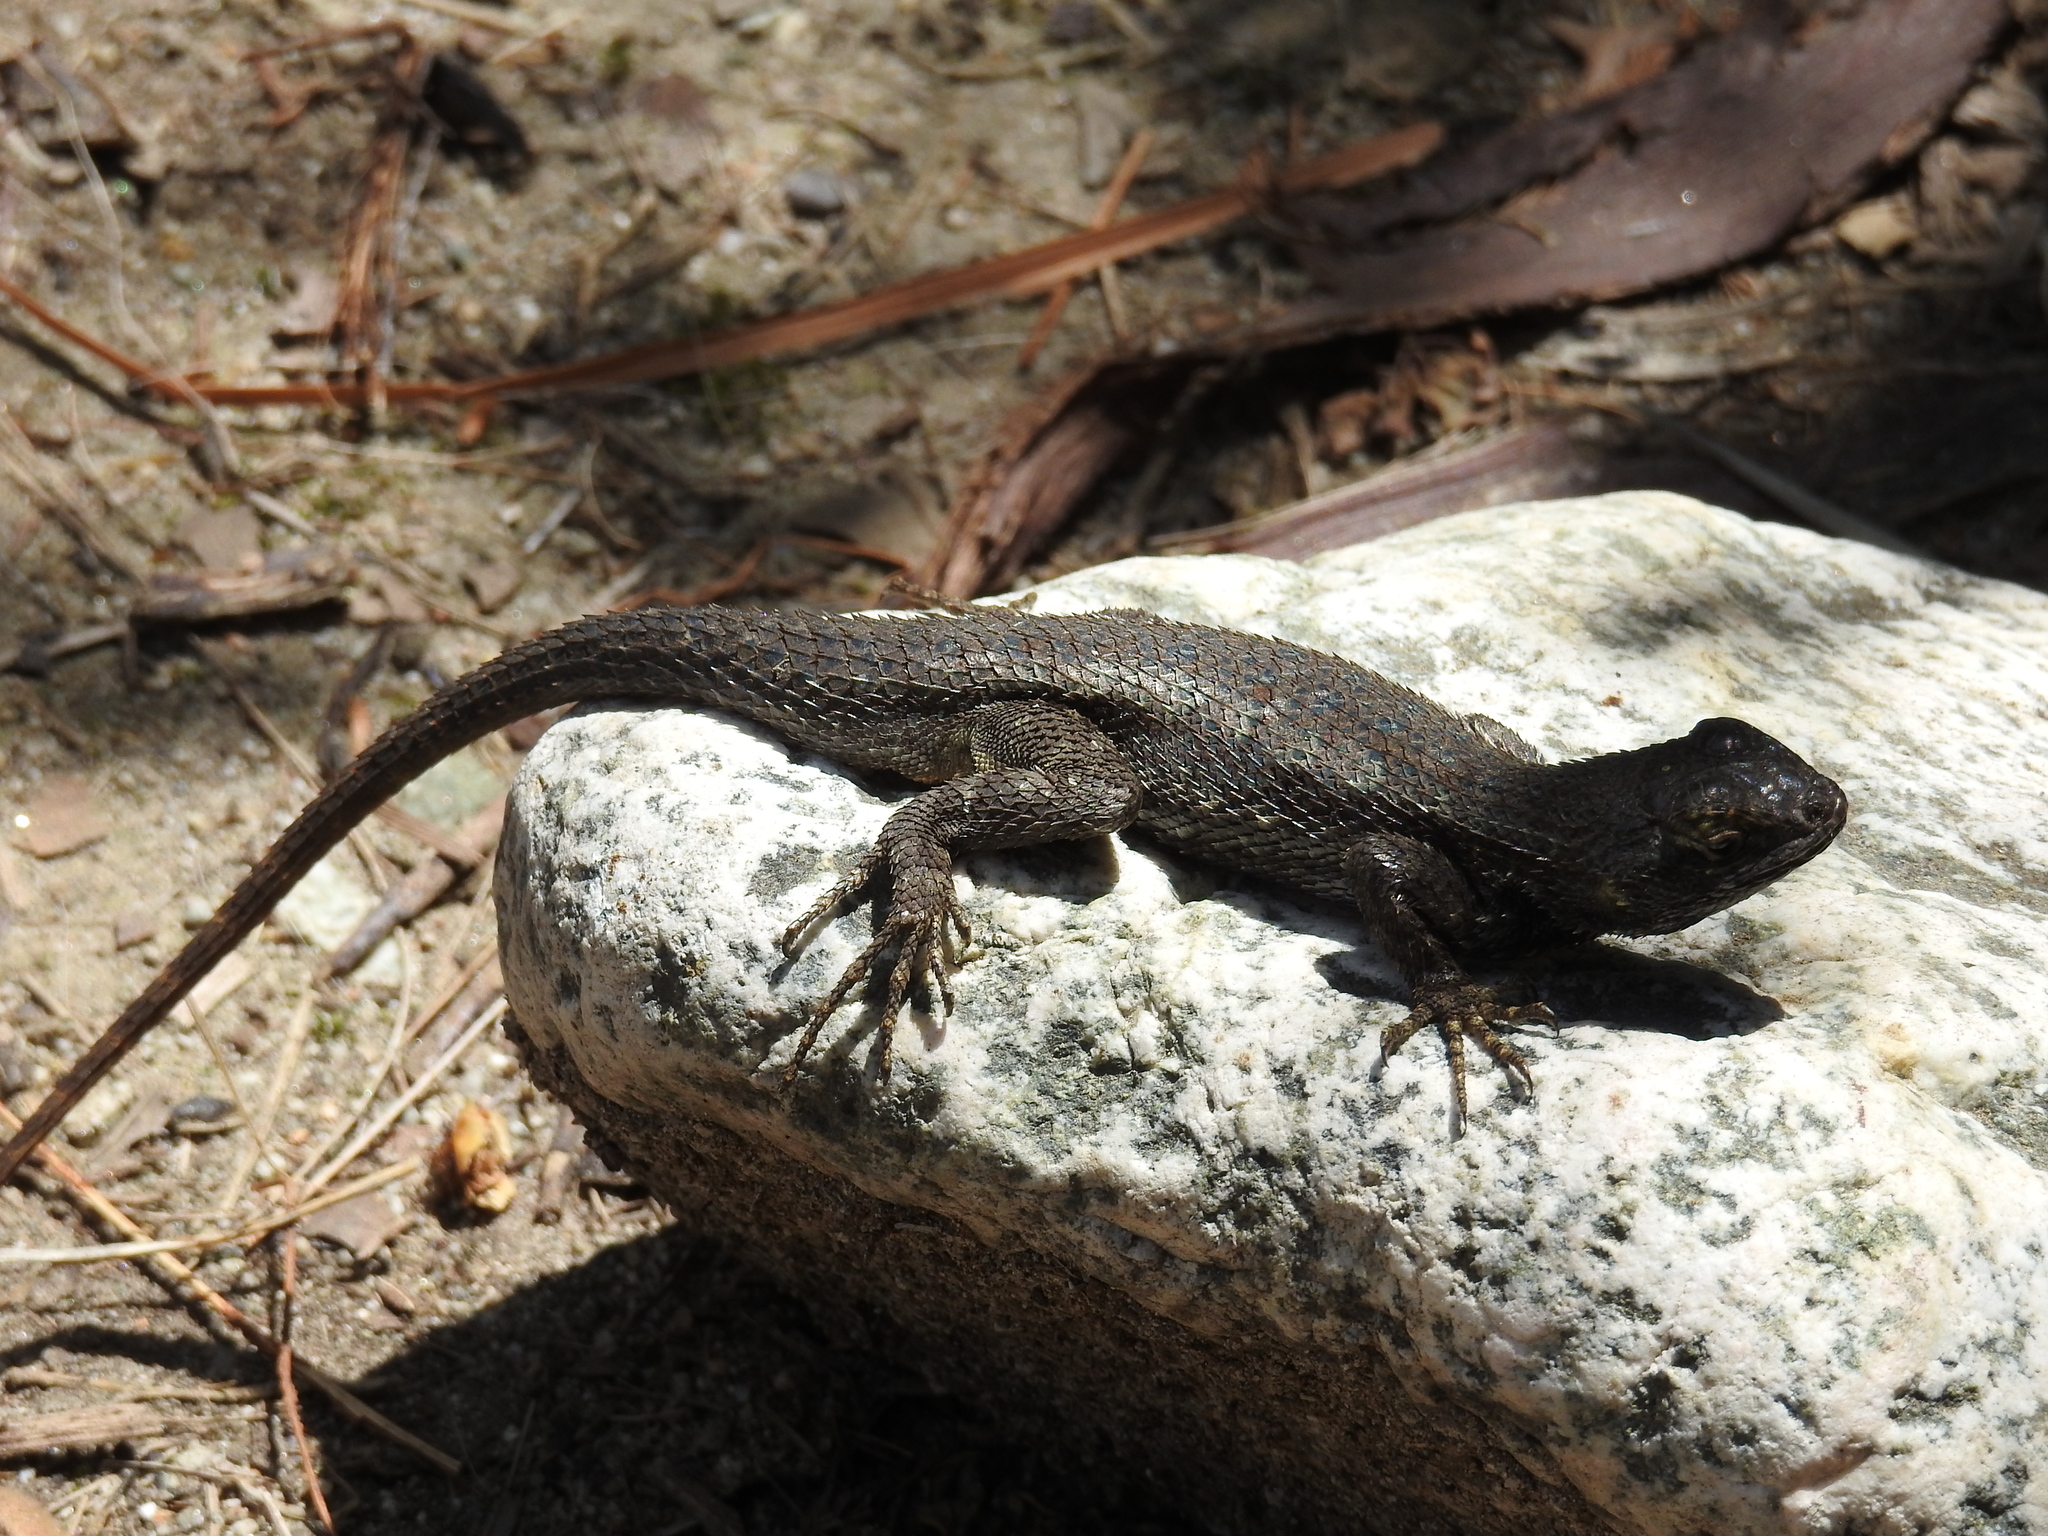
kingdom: Animalia
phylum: Chordata
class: Squamata
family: Phrynosomatidae
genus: Sceloporus
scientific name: Sceloporus occidentalis
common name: Western fence lizard
